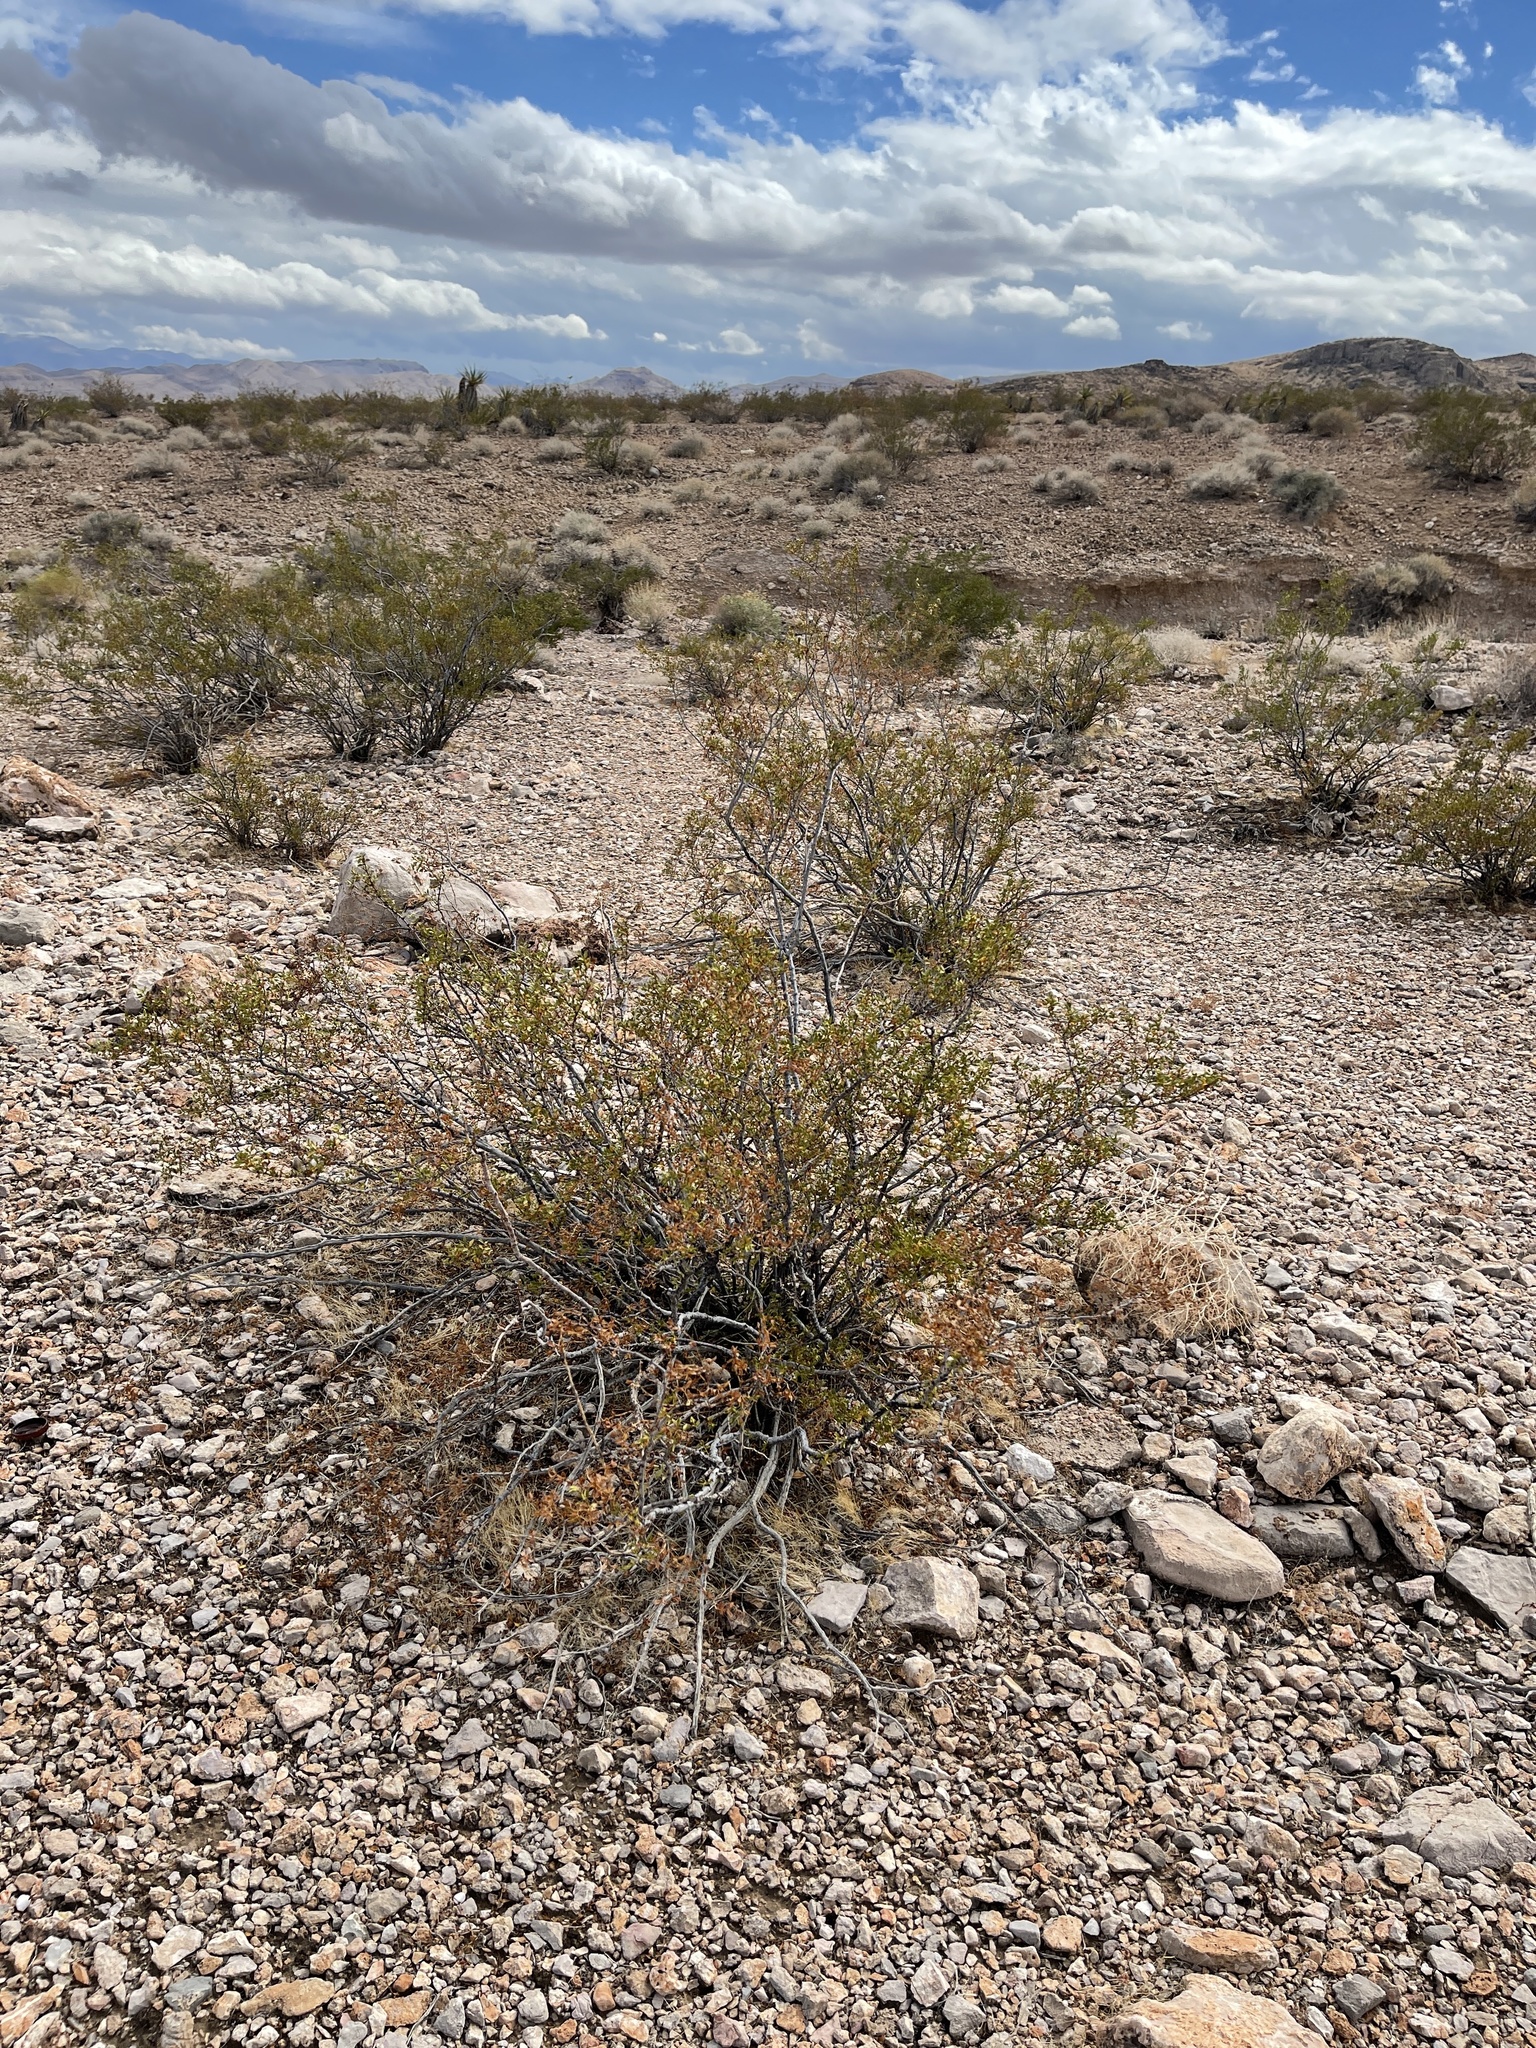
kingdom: Plantae
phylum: Tracheophyta
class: Magnoliopsida
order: Zygophyllales
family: Zygophyllaceae
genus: Larrea
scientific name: Larrea tridentata
